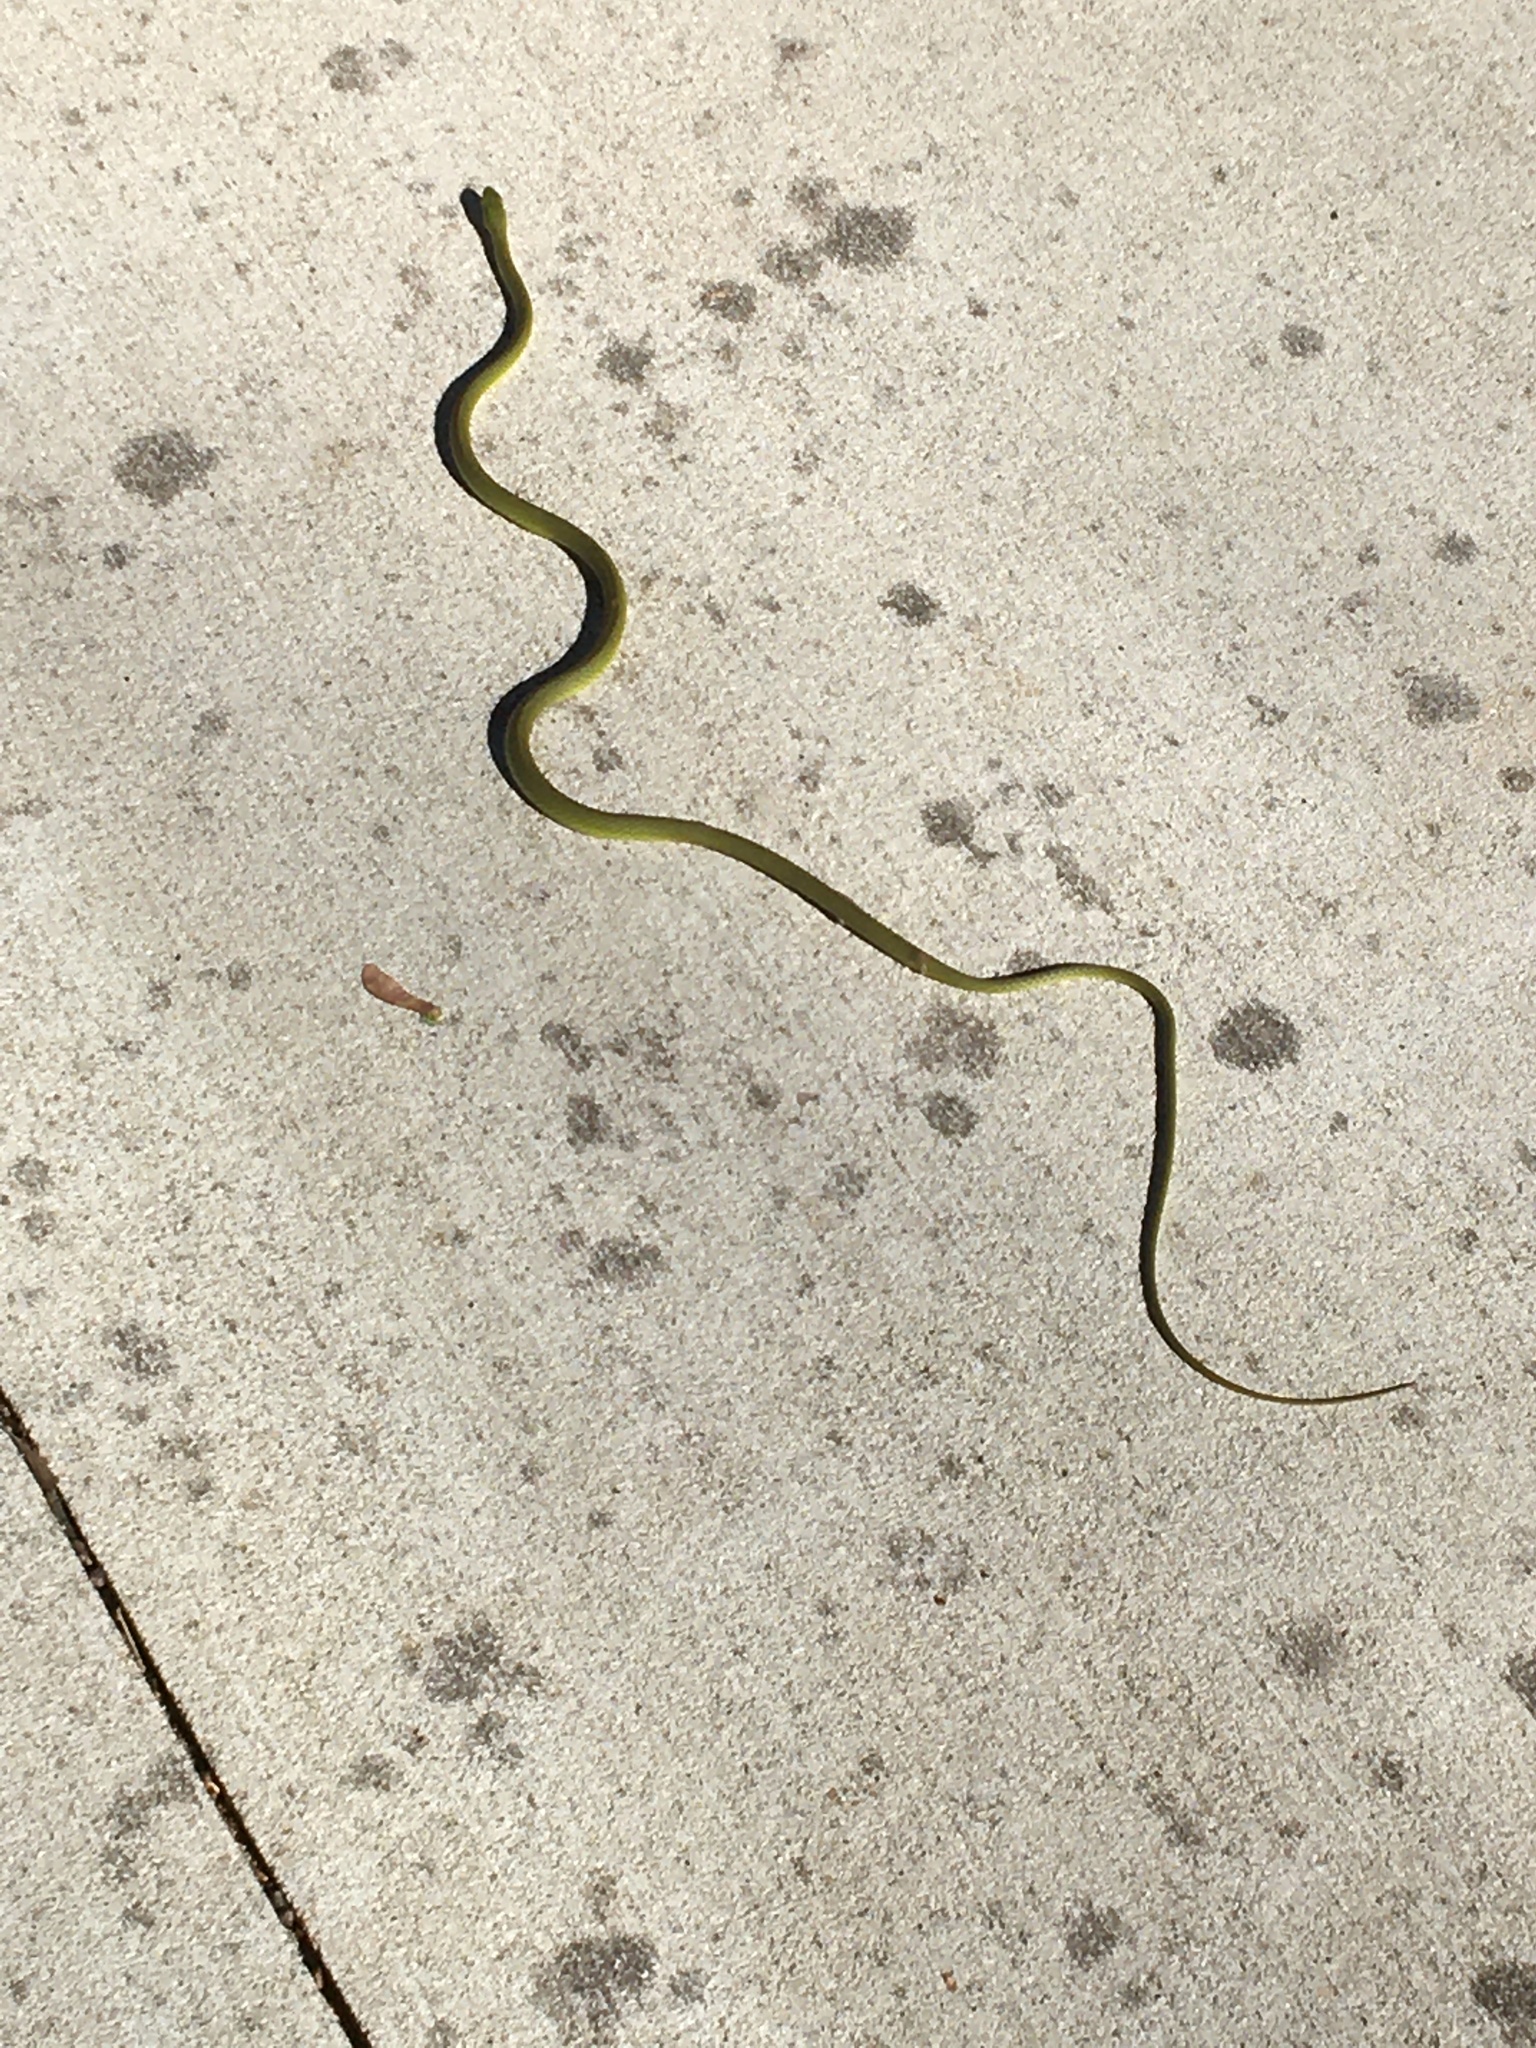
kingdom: Animalia
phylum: Chordata
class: Squamata
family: Colubridae
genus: Opheodrys
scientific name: Opheodrys aestivus
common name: Rough greensnake
